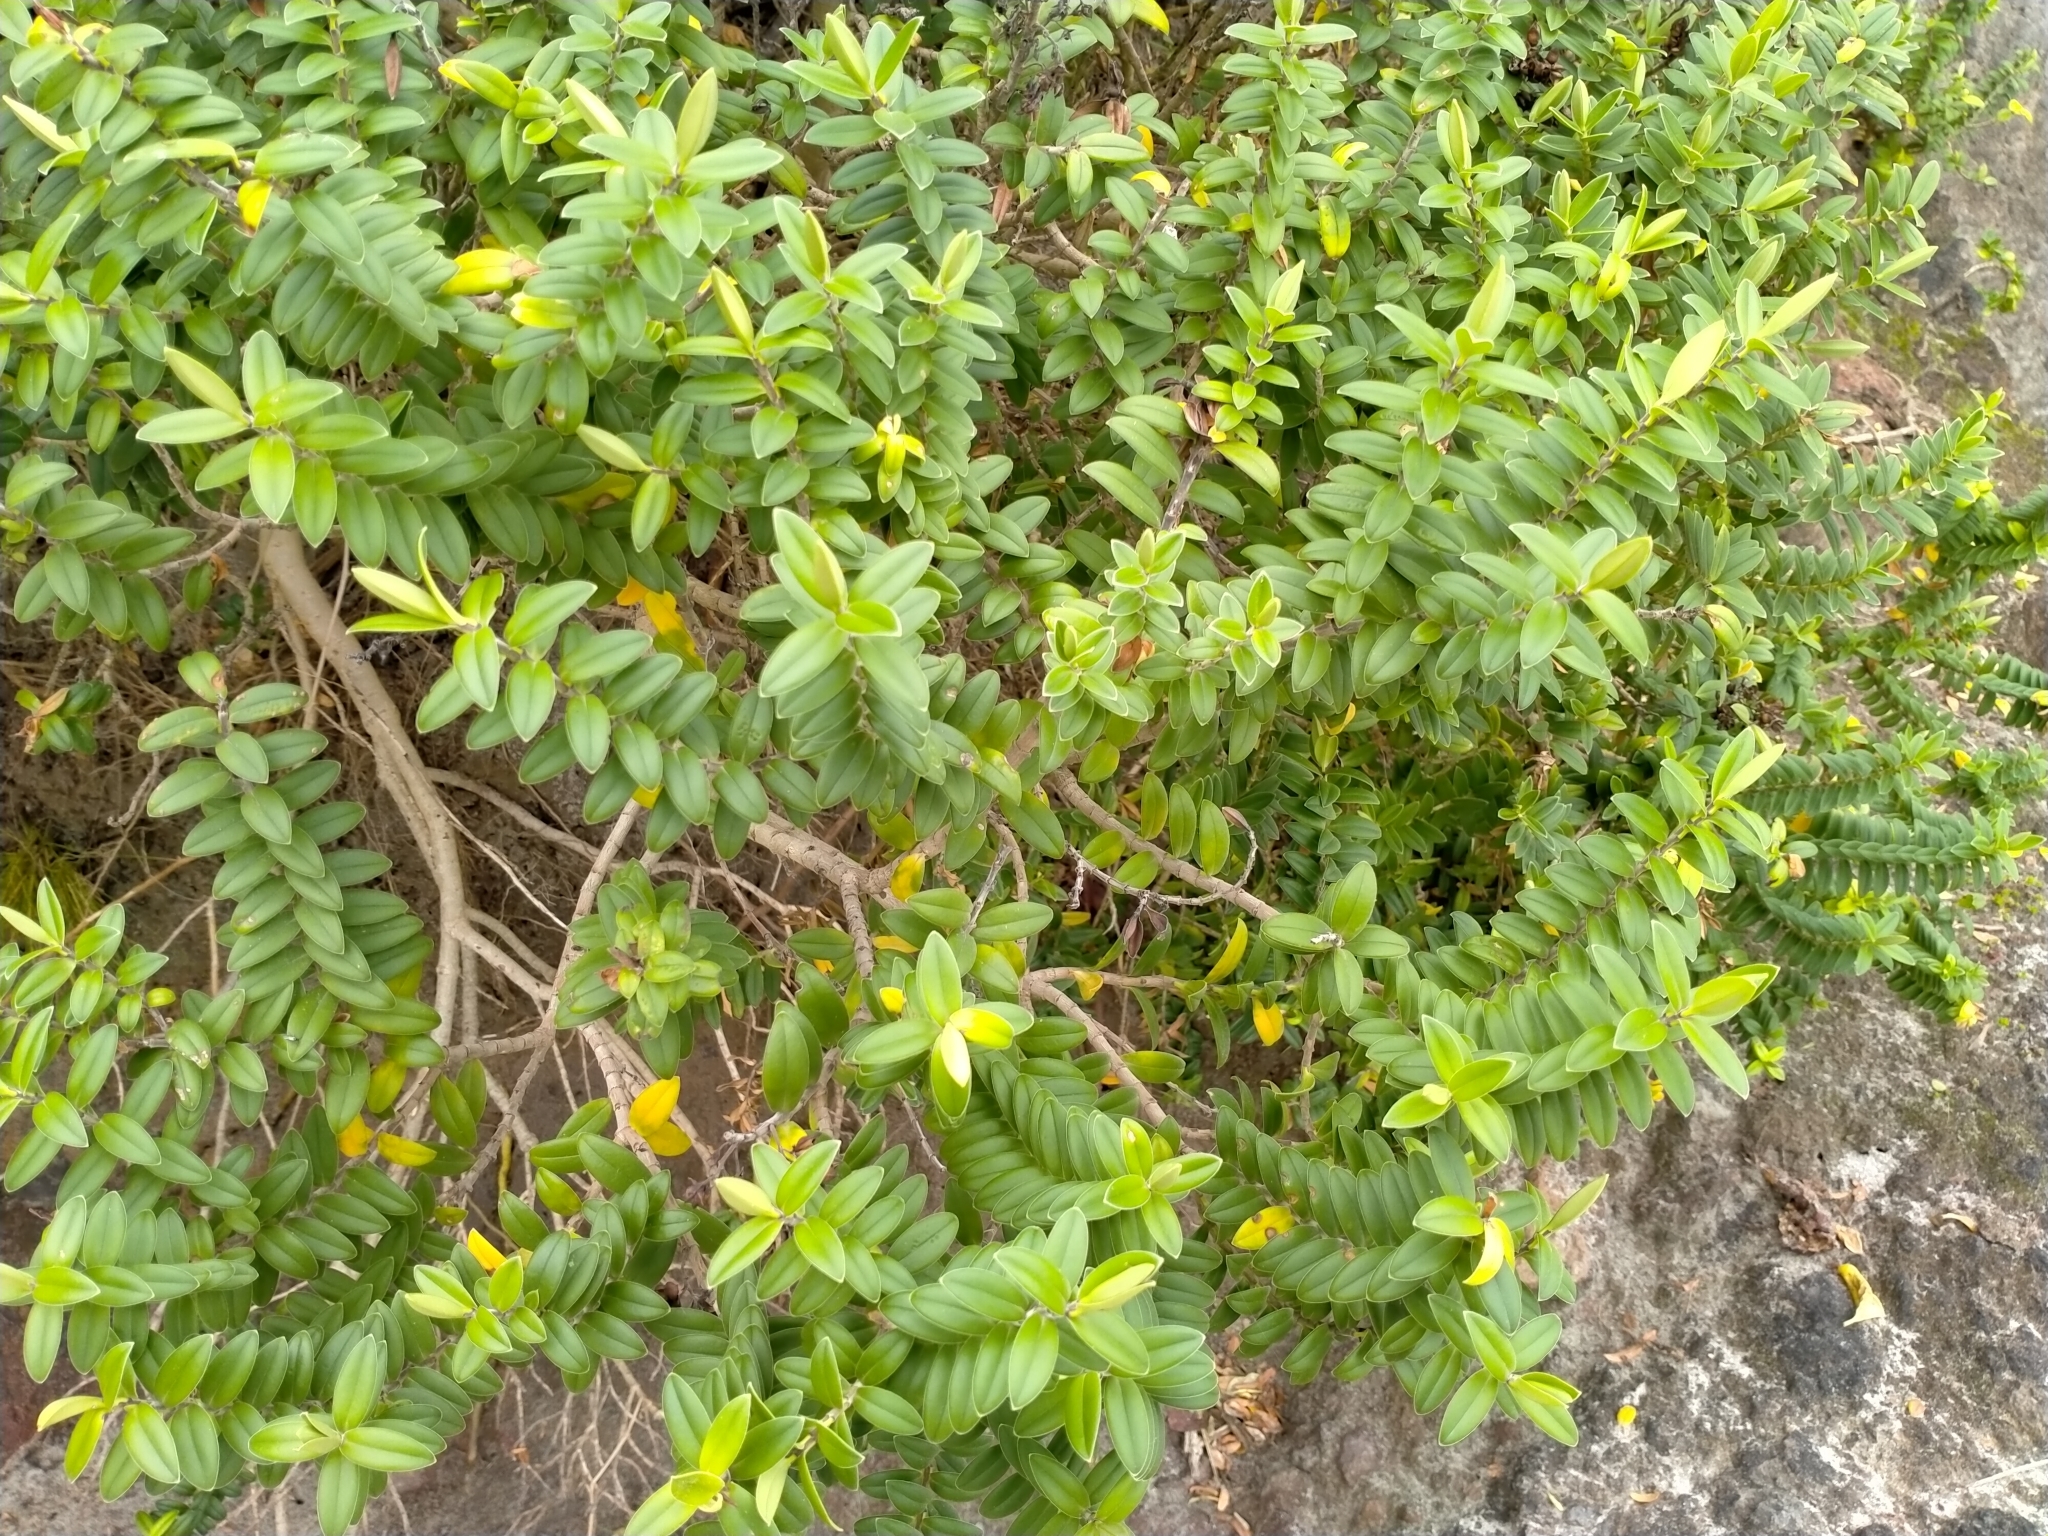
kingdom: Plantae
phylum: Tracheophyta
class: Magnoliopsida
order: Lamiales
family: Plantaginaceae
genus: Veronica
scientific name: Veronica elliptica
